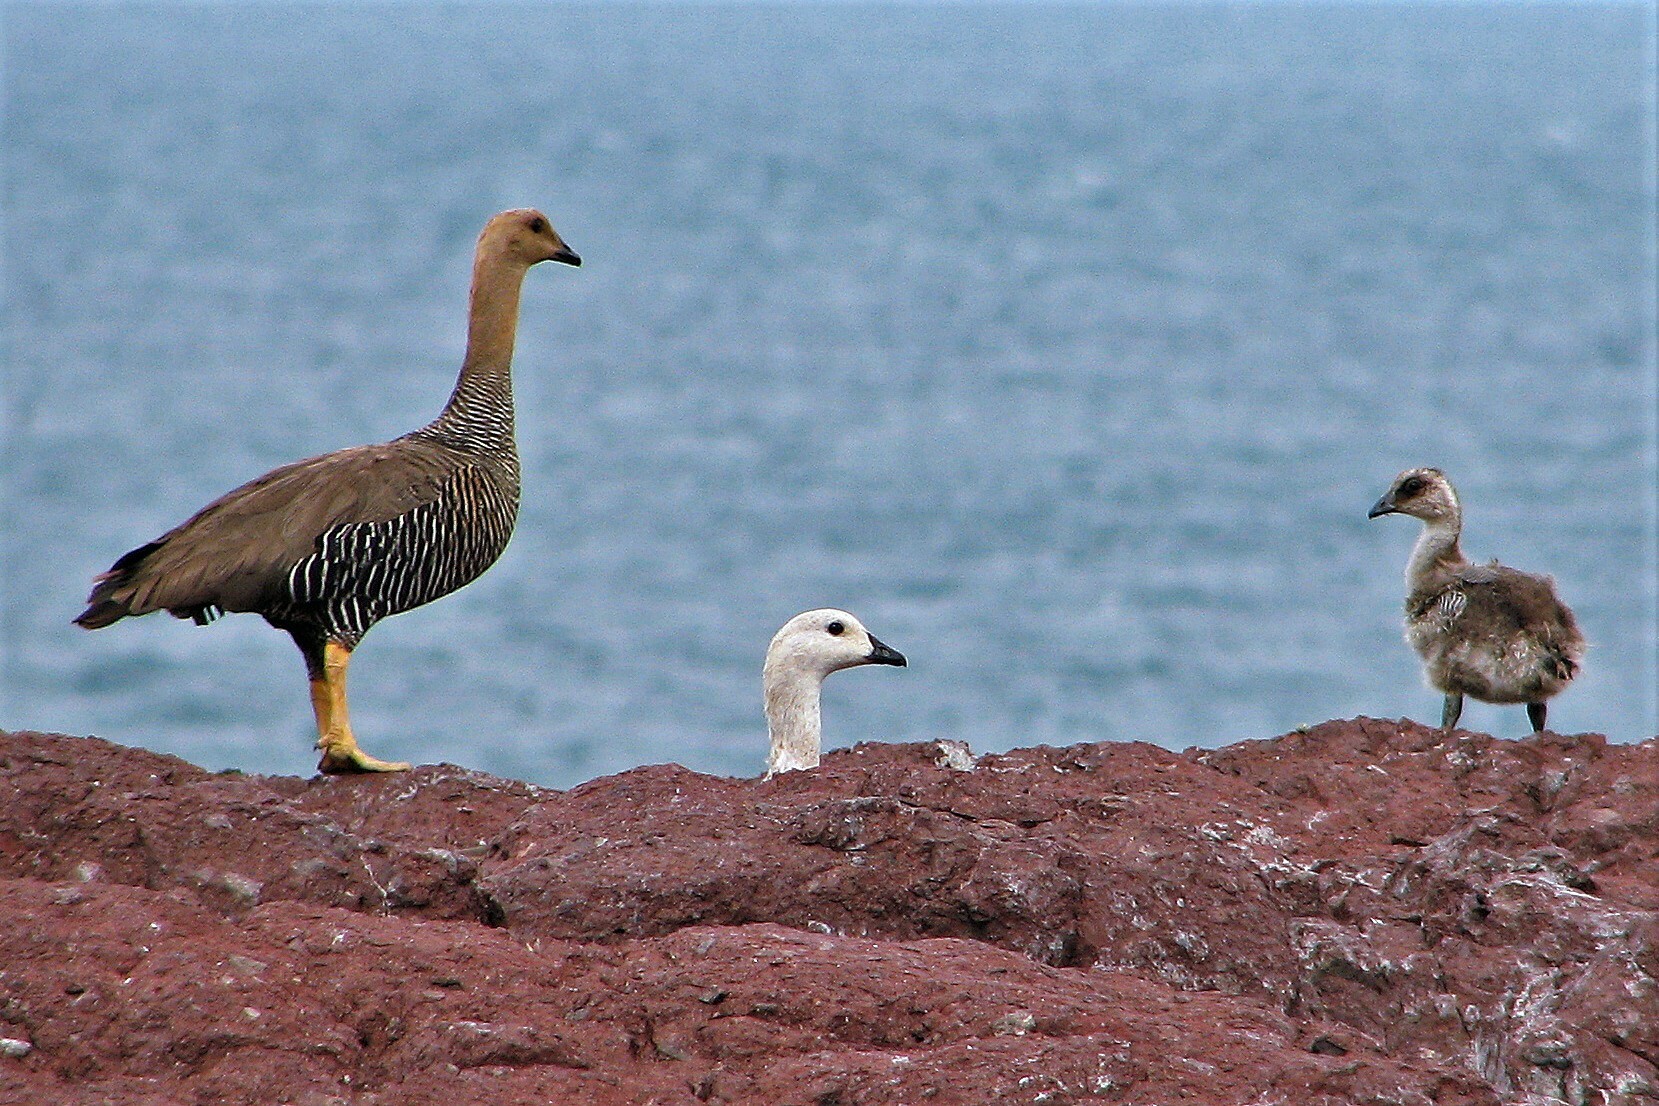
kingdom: Animalia
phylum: Chordata
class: Aves
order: Anseriformes
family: Anatidae
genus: Chloephaga
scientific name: Chloephaga picta
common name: Upland goose
